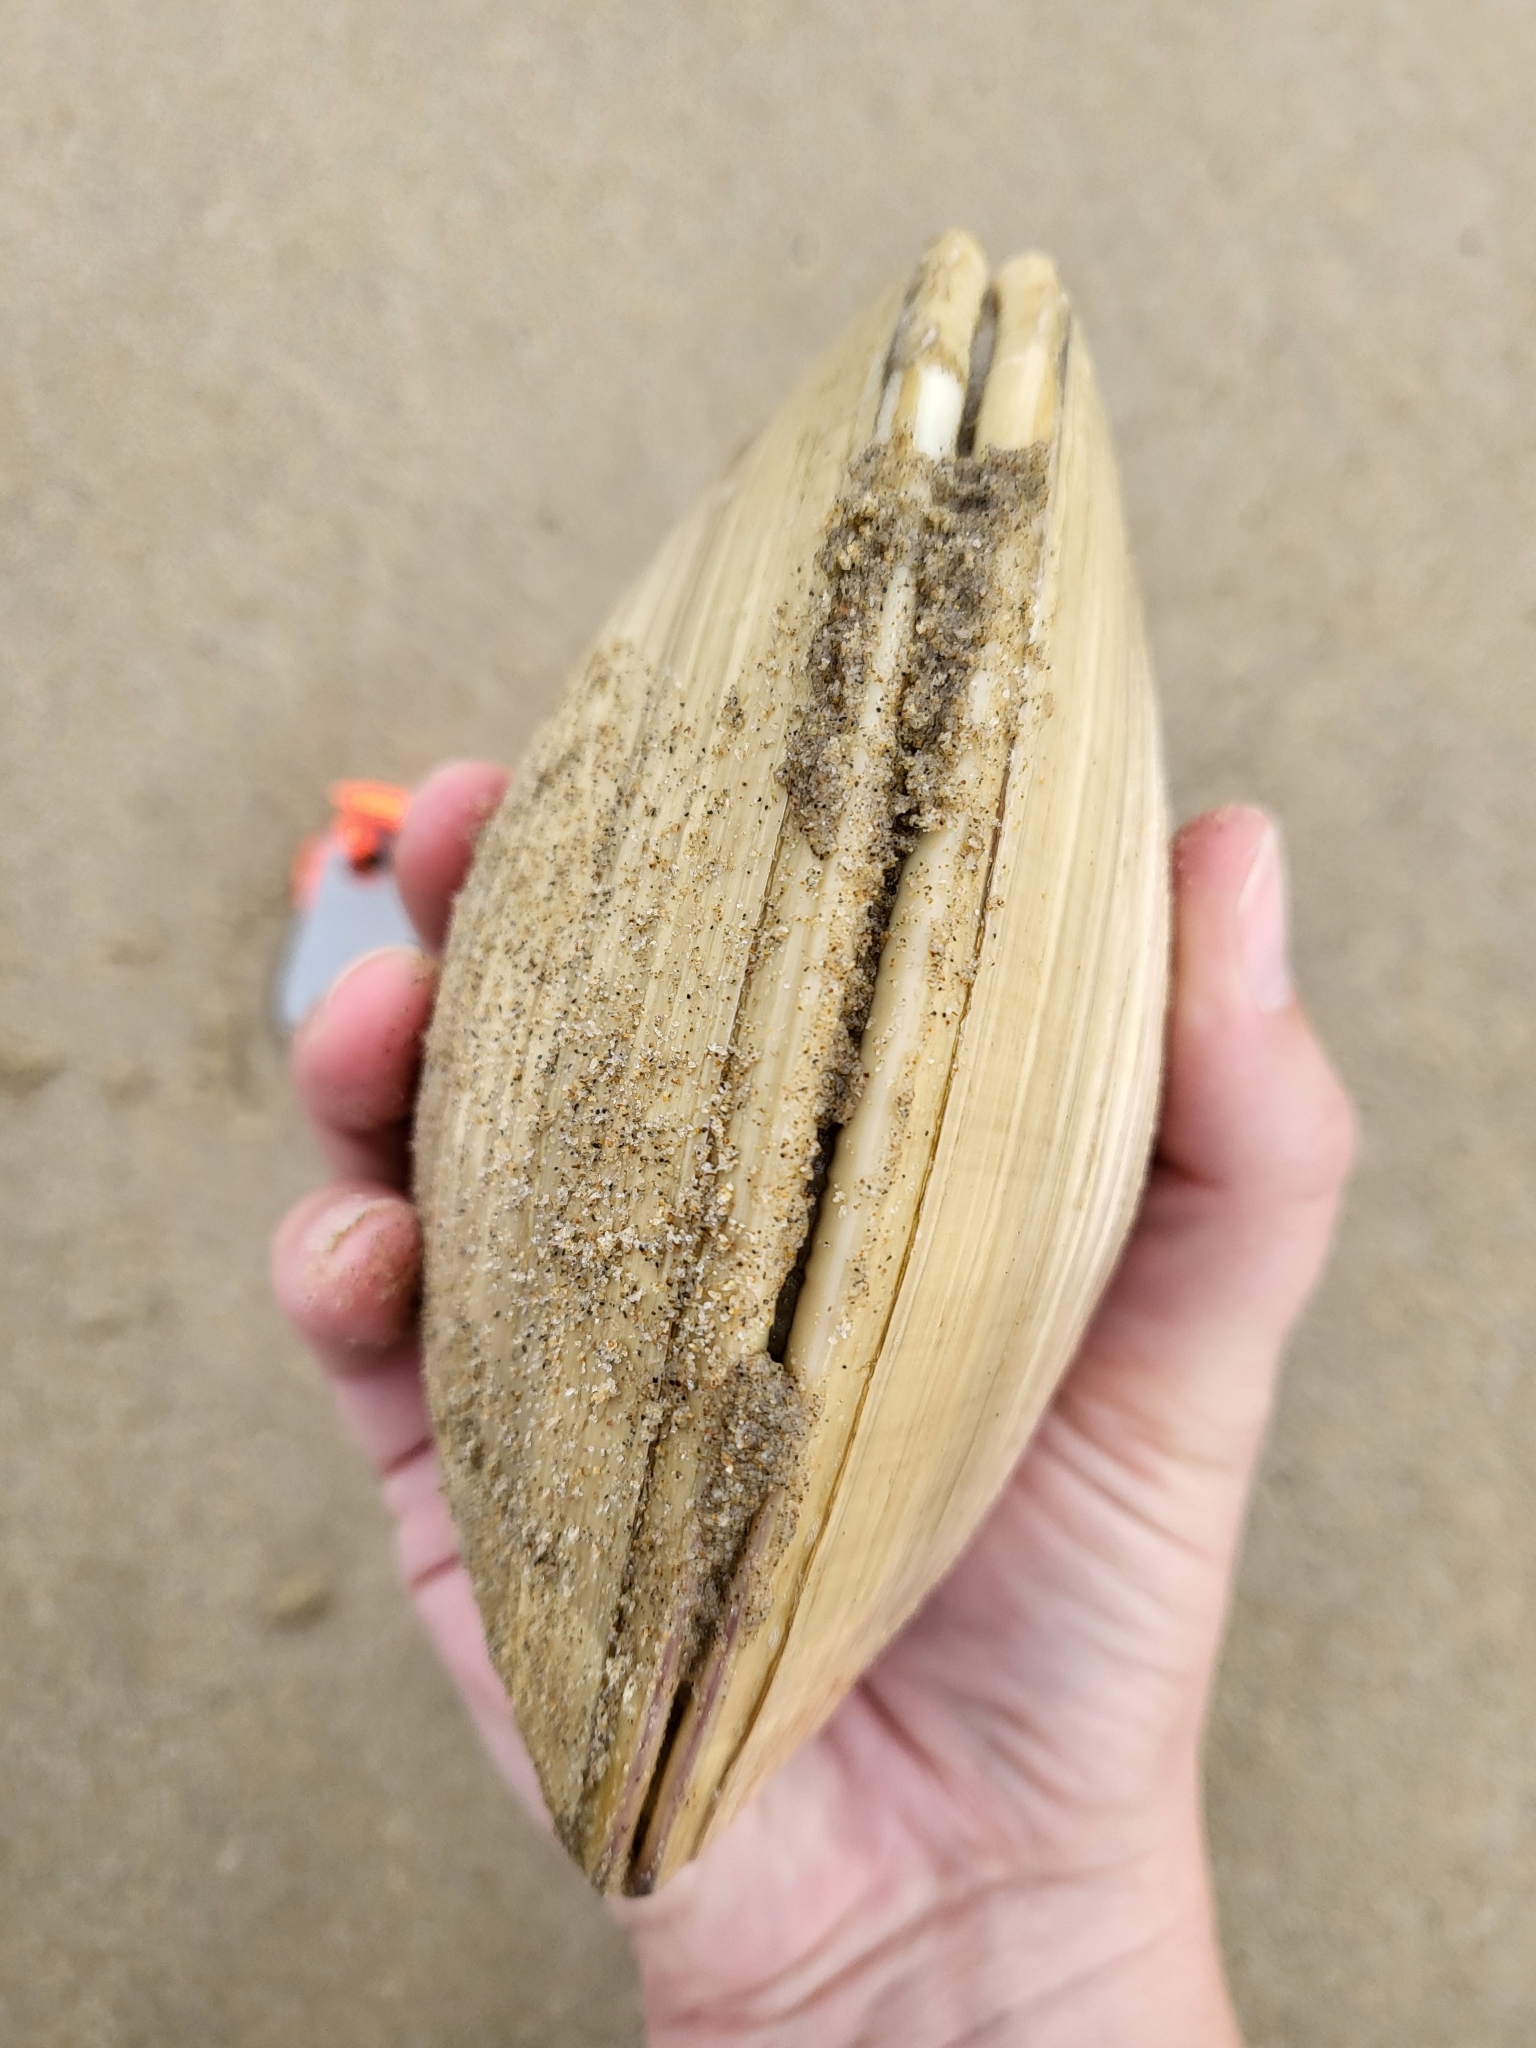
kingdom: Animalia
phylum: Mollusca
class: Bivalvia
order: Venerida
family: Veneridae
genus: Tivela
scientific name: Tivela stultorum
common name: Pismo clam
